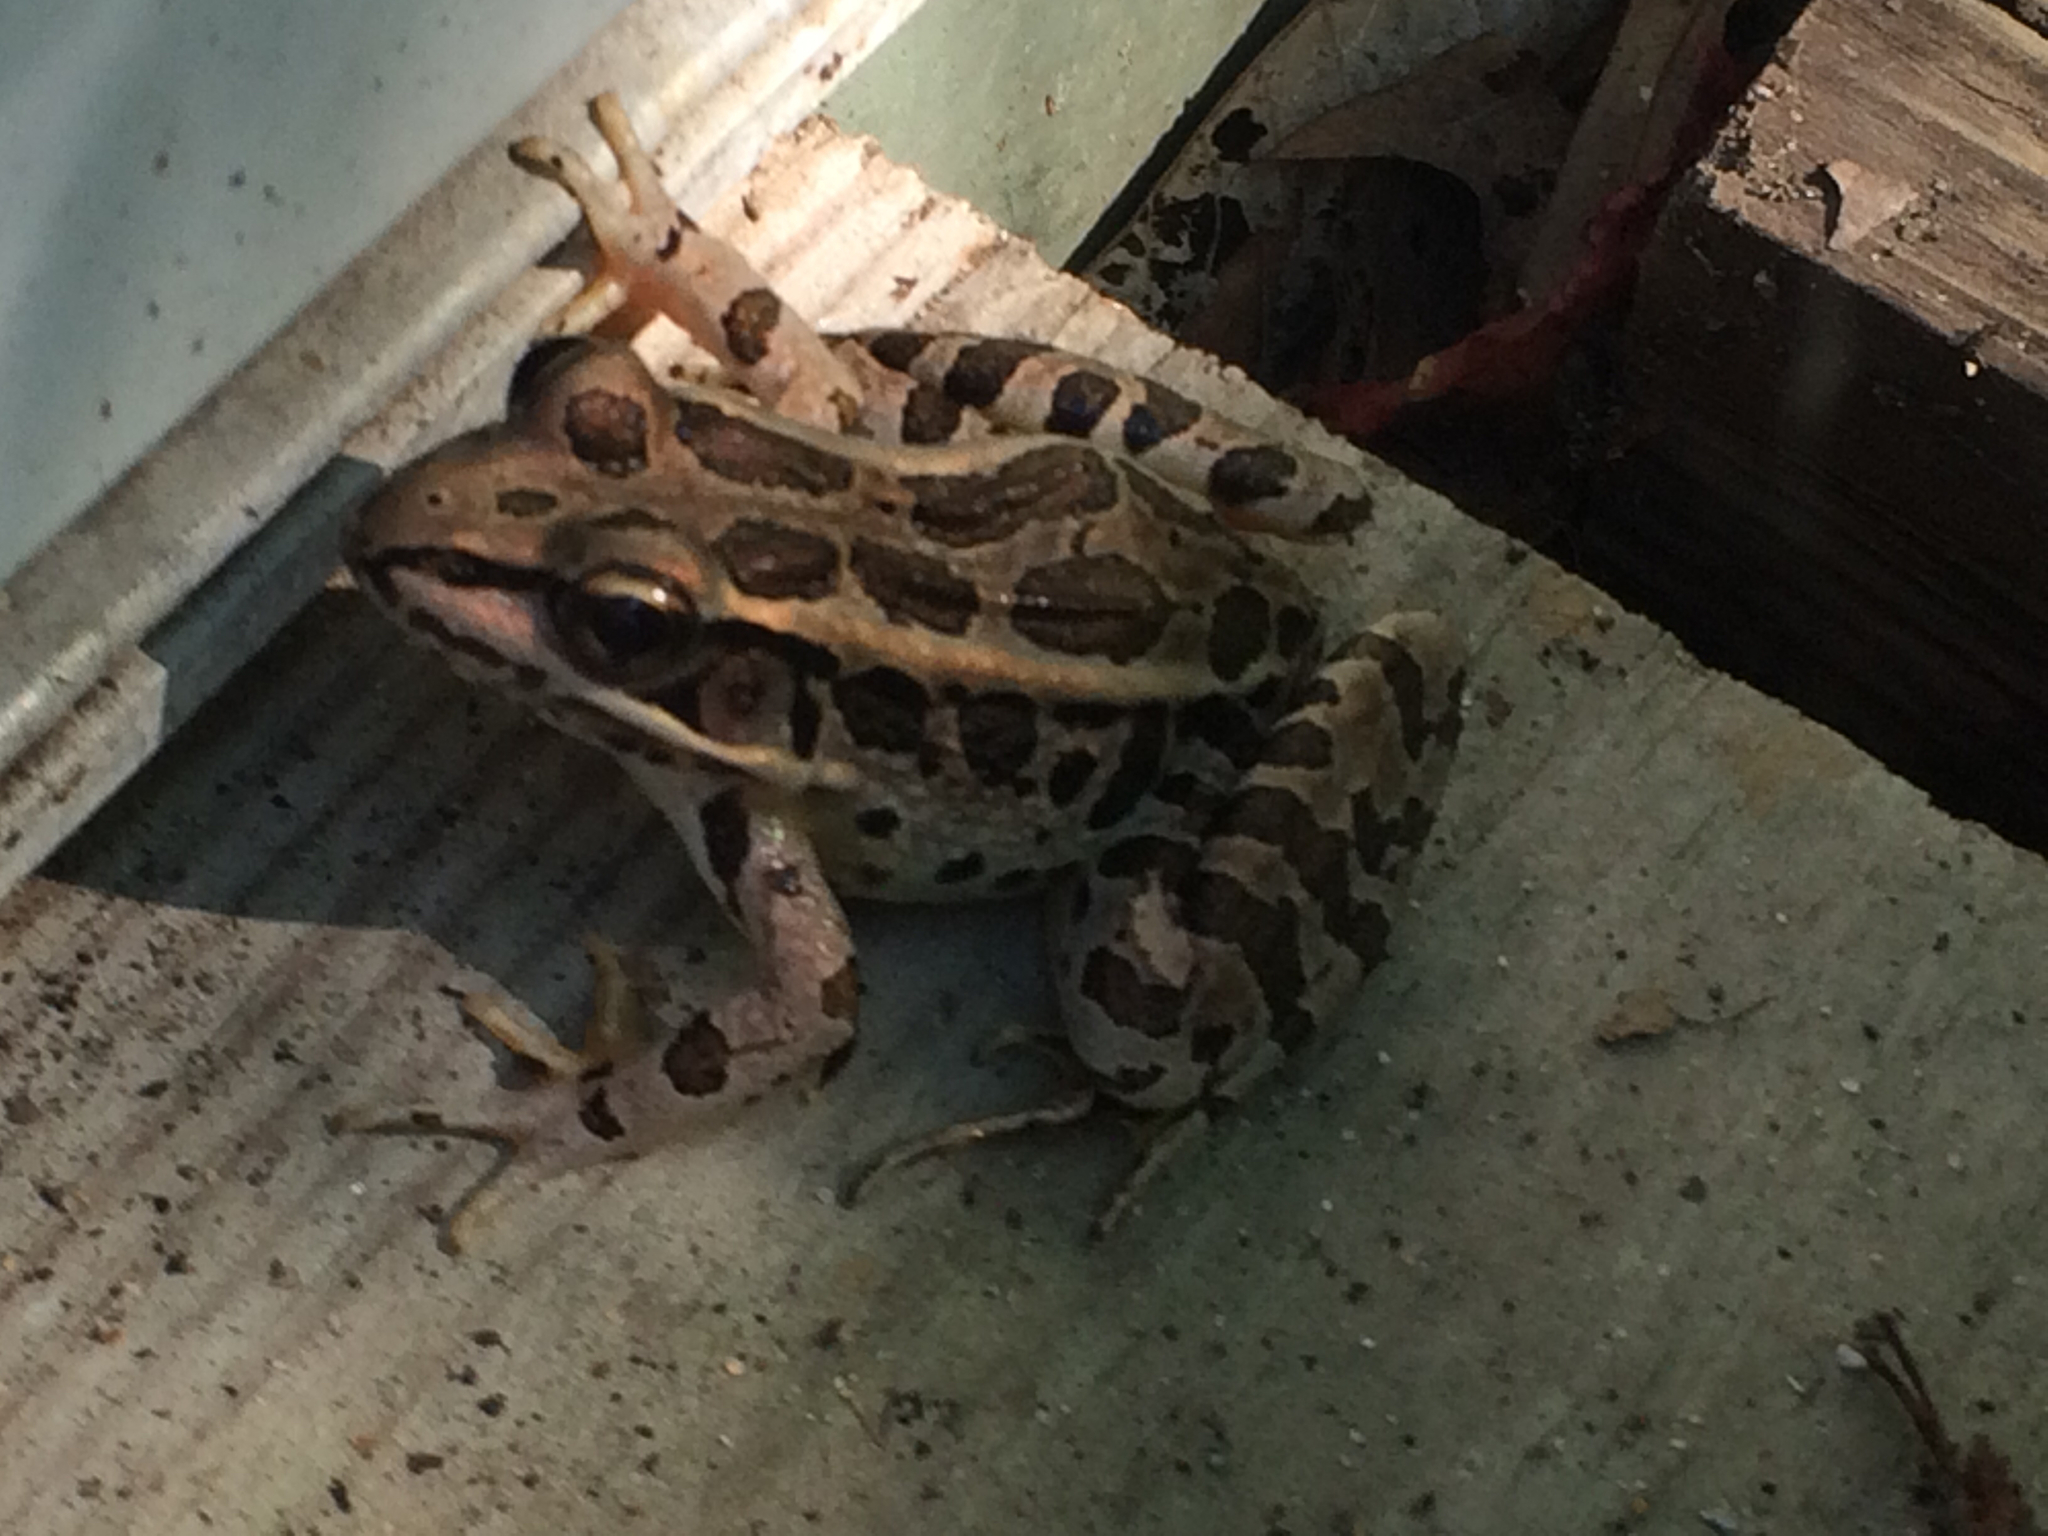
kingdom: Animalia
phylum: Chordata
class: Amphibia
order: Anura
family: Ranidae
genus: Lithobates
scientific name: Lithobates palustris
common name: Pickerel frog
